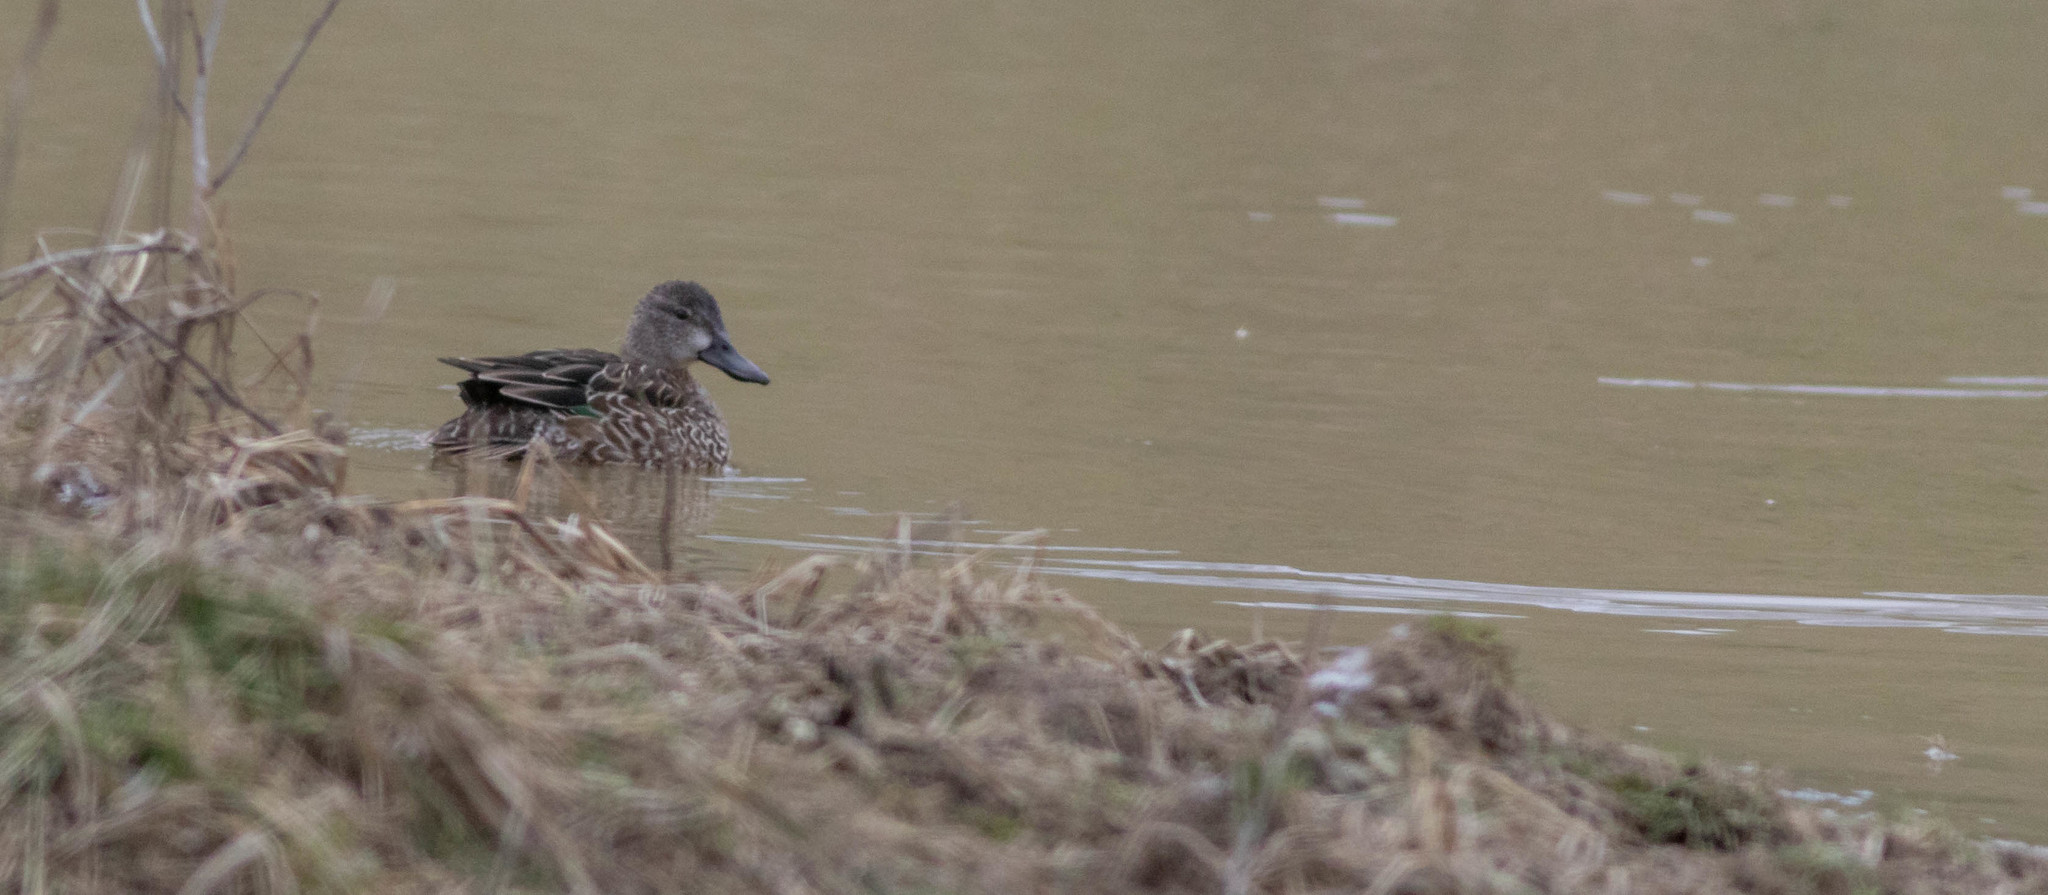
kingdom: Animalia
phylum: Chordata
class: Aves
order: Anseriformes
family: Anatidae
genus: Anas
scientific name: Anas crecca
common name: Eurasian teal
